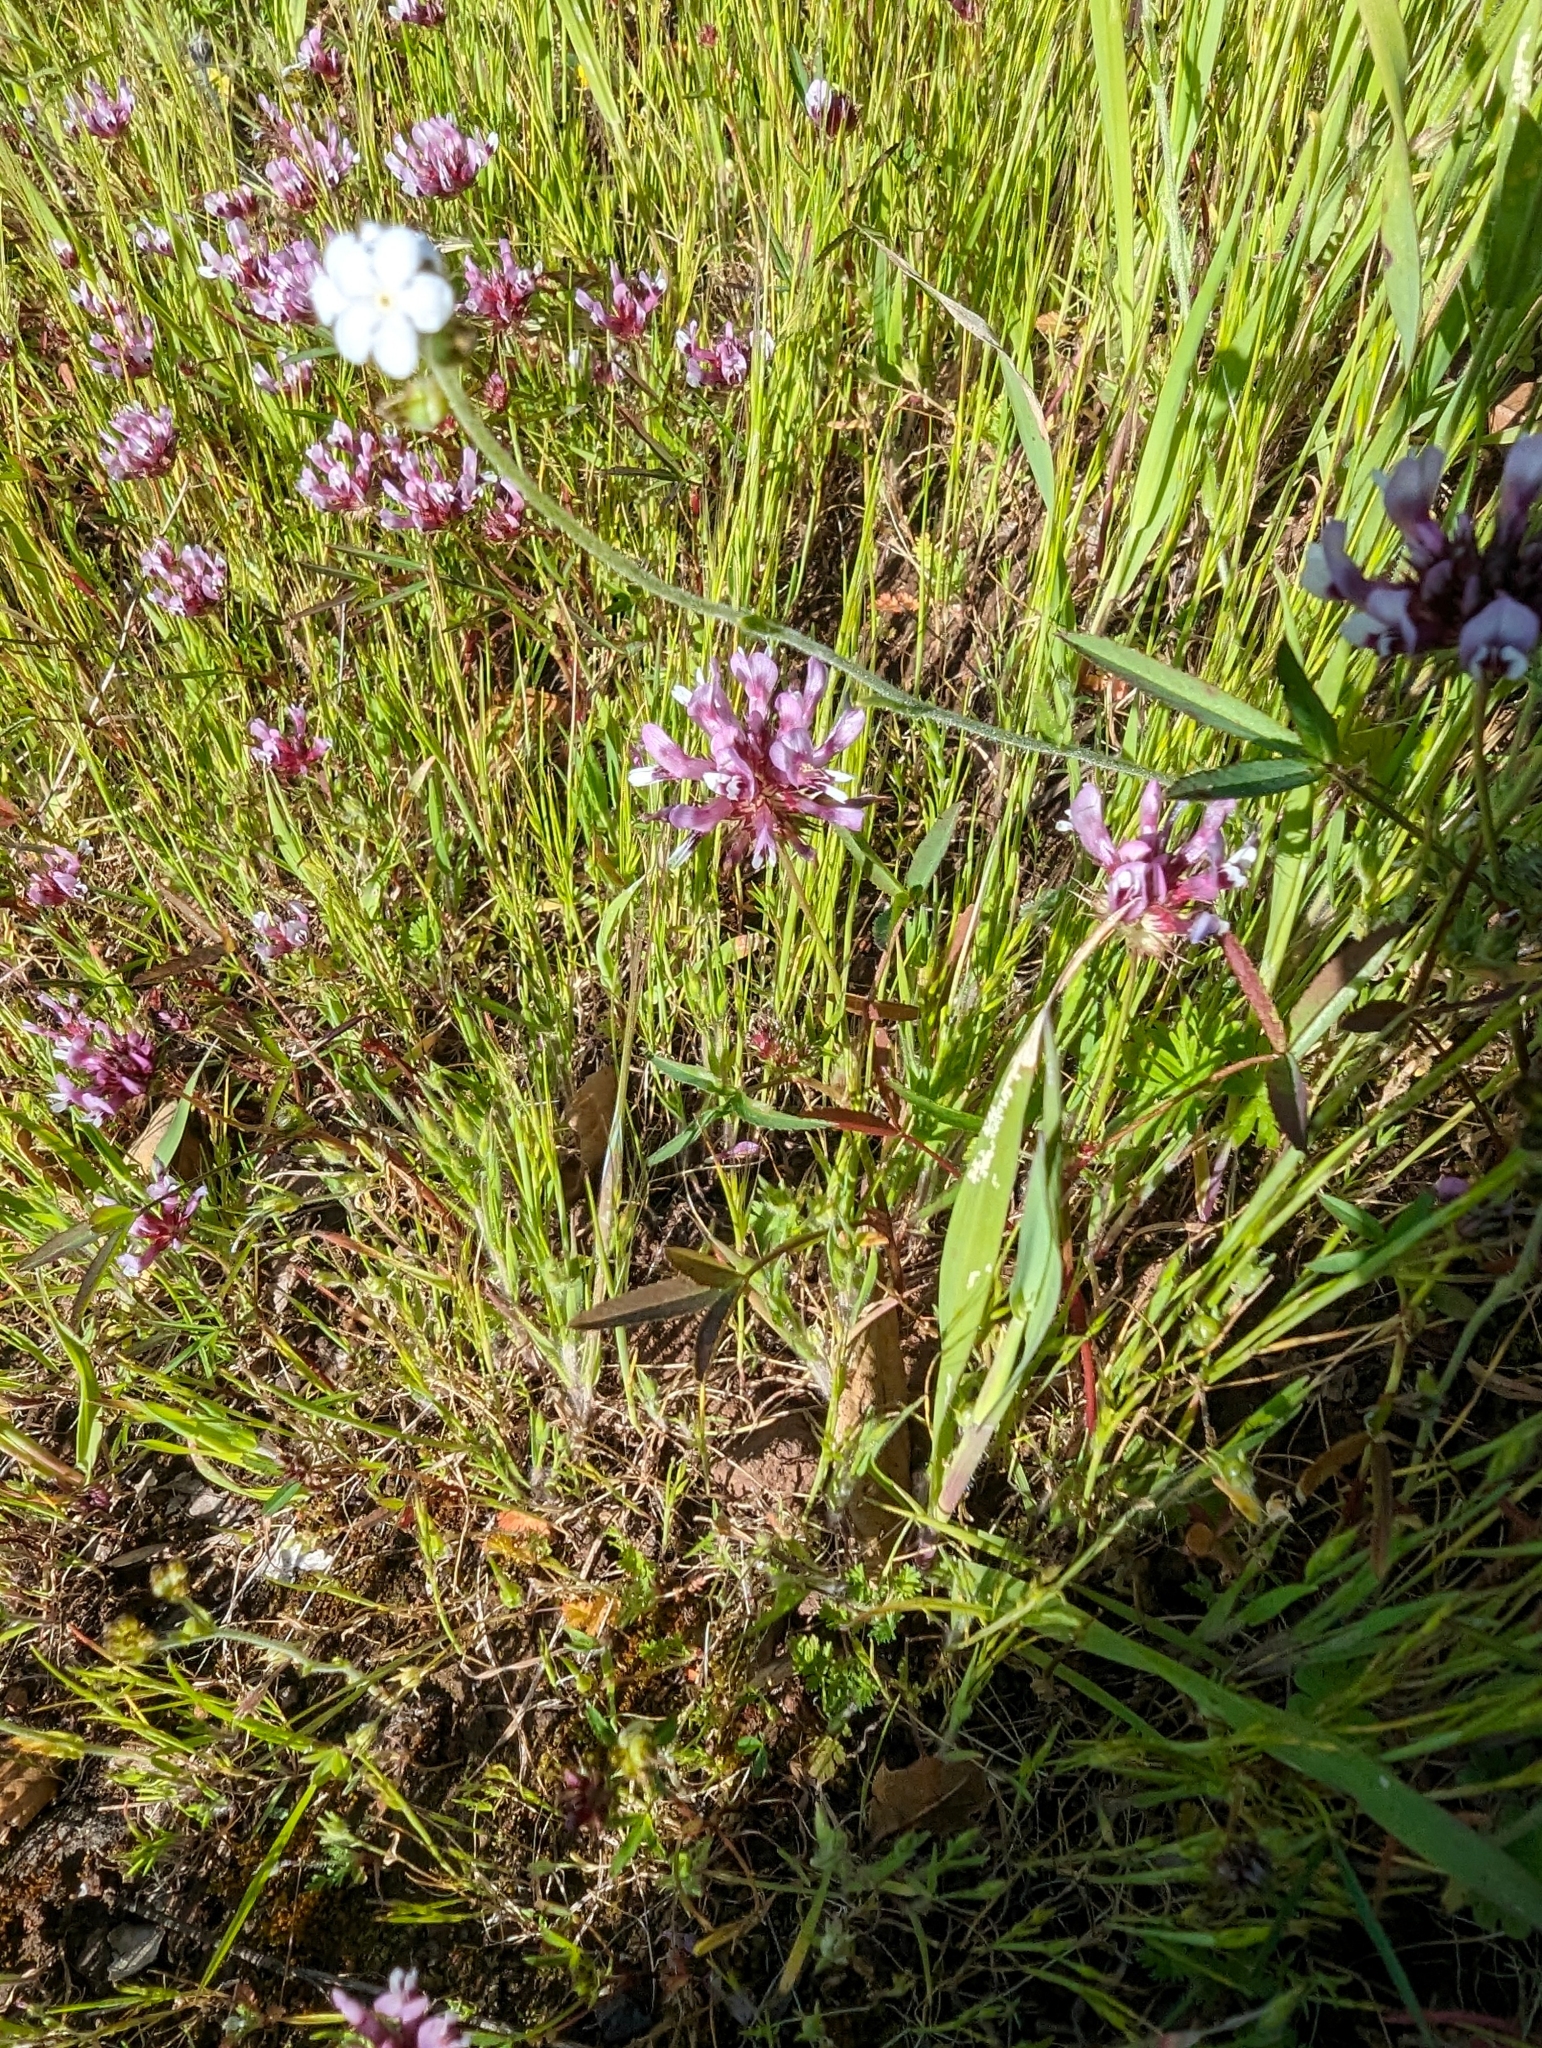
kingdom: Plantae
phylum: Tracheophyta
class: Magnoliopsida
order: Fabales
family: Fabaceae
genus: Trifolium
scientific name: Trifolium willdenovii
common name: Tomcat clover
